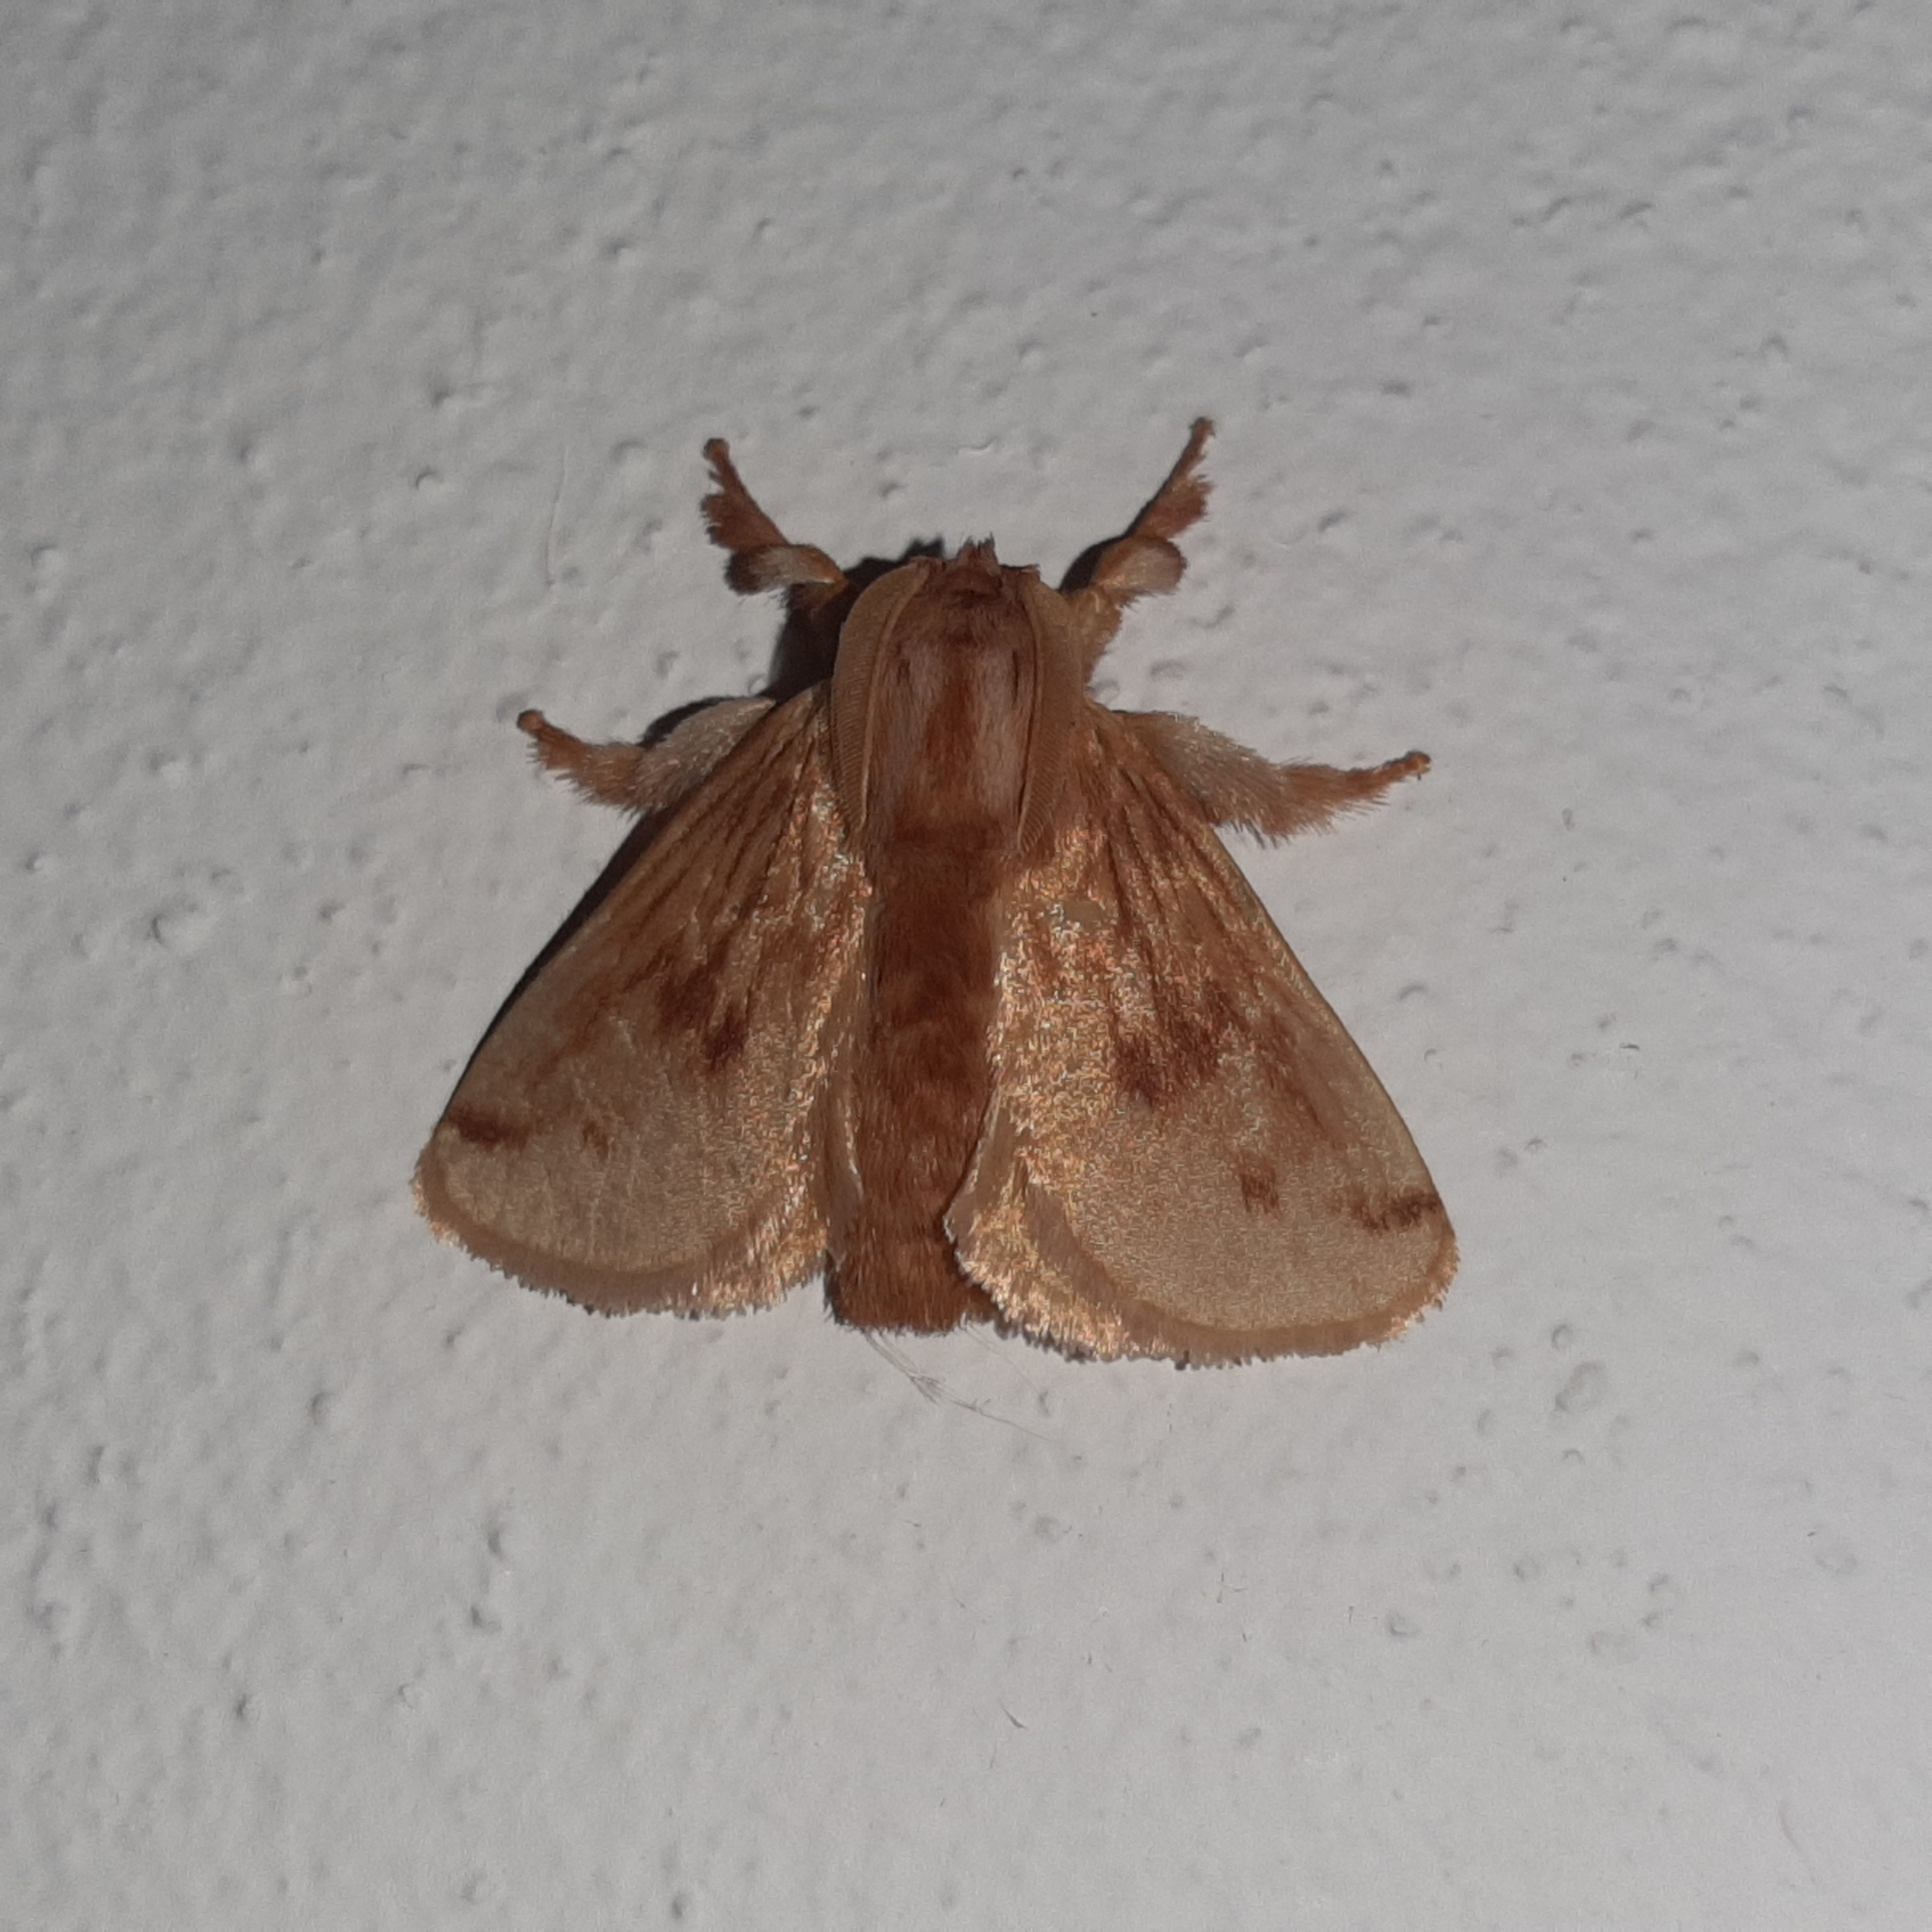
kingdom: Animalia
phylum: Arthropoda
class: Insecta
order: Lepidoptera
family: Limacodidae
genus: Perola
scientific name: Perola sericea
